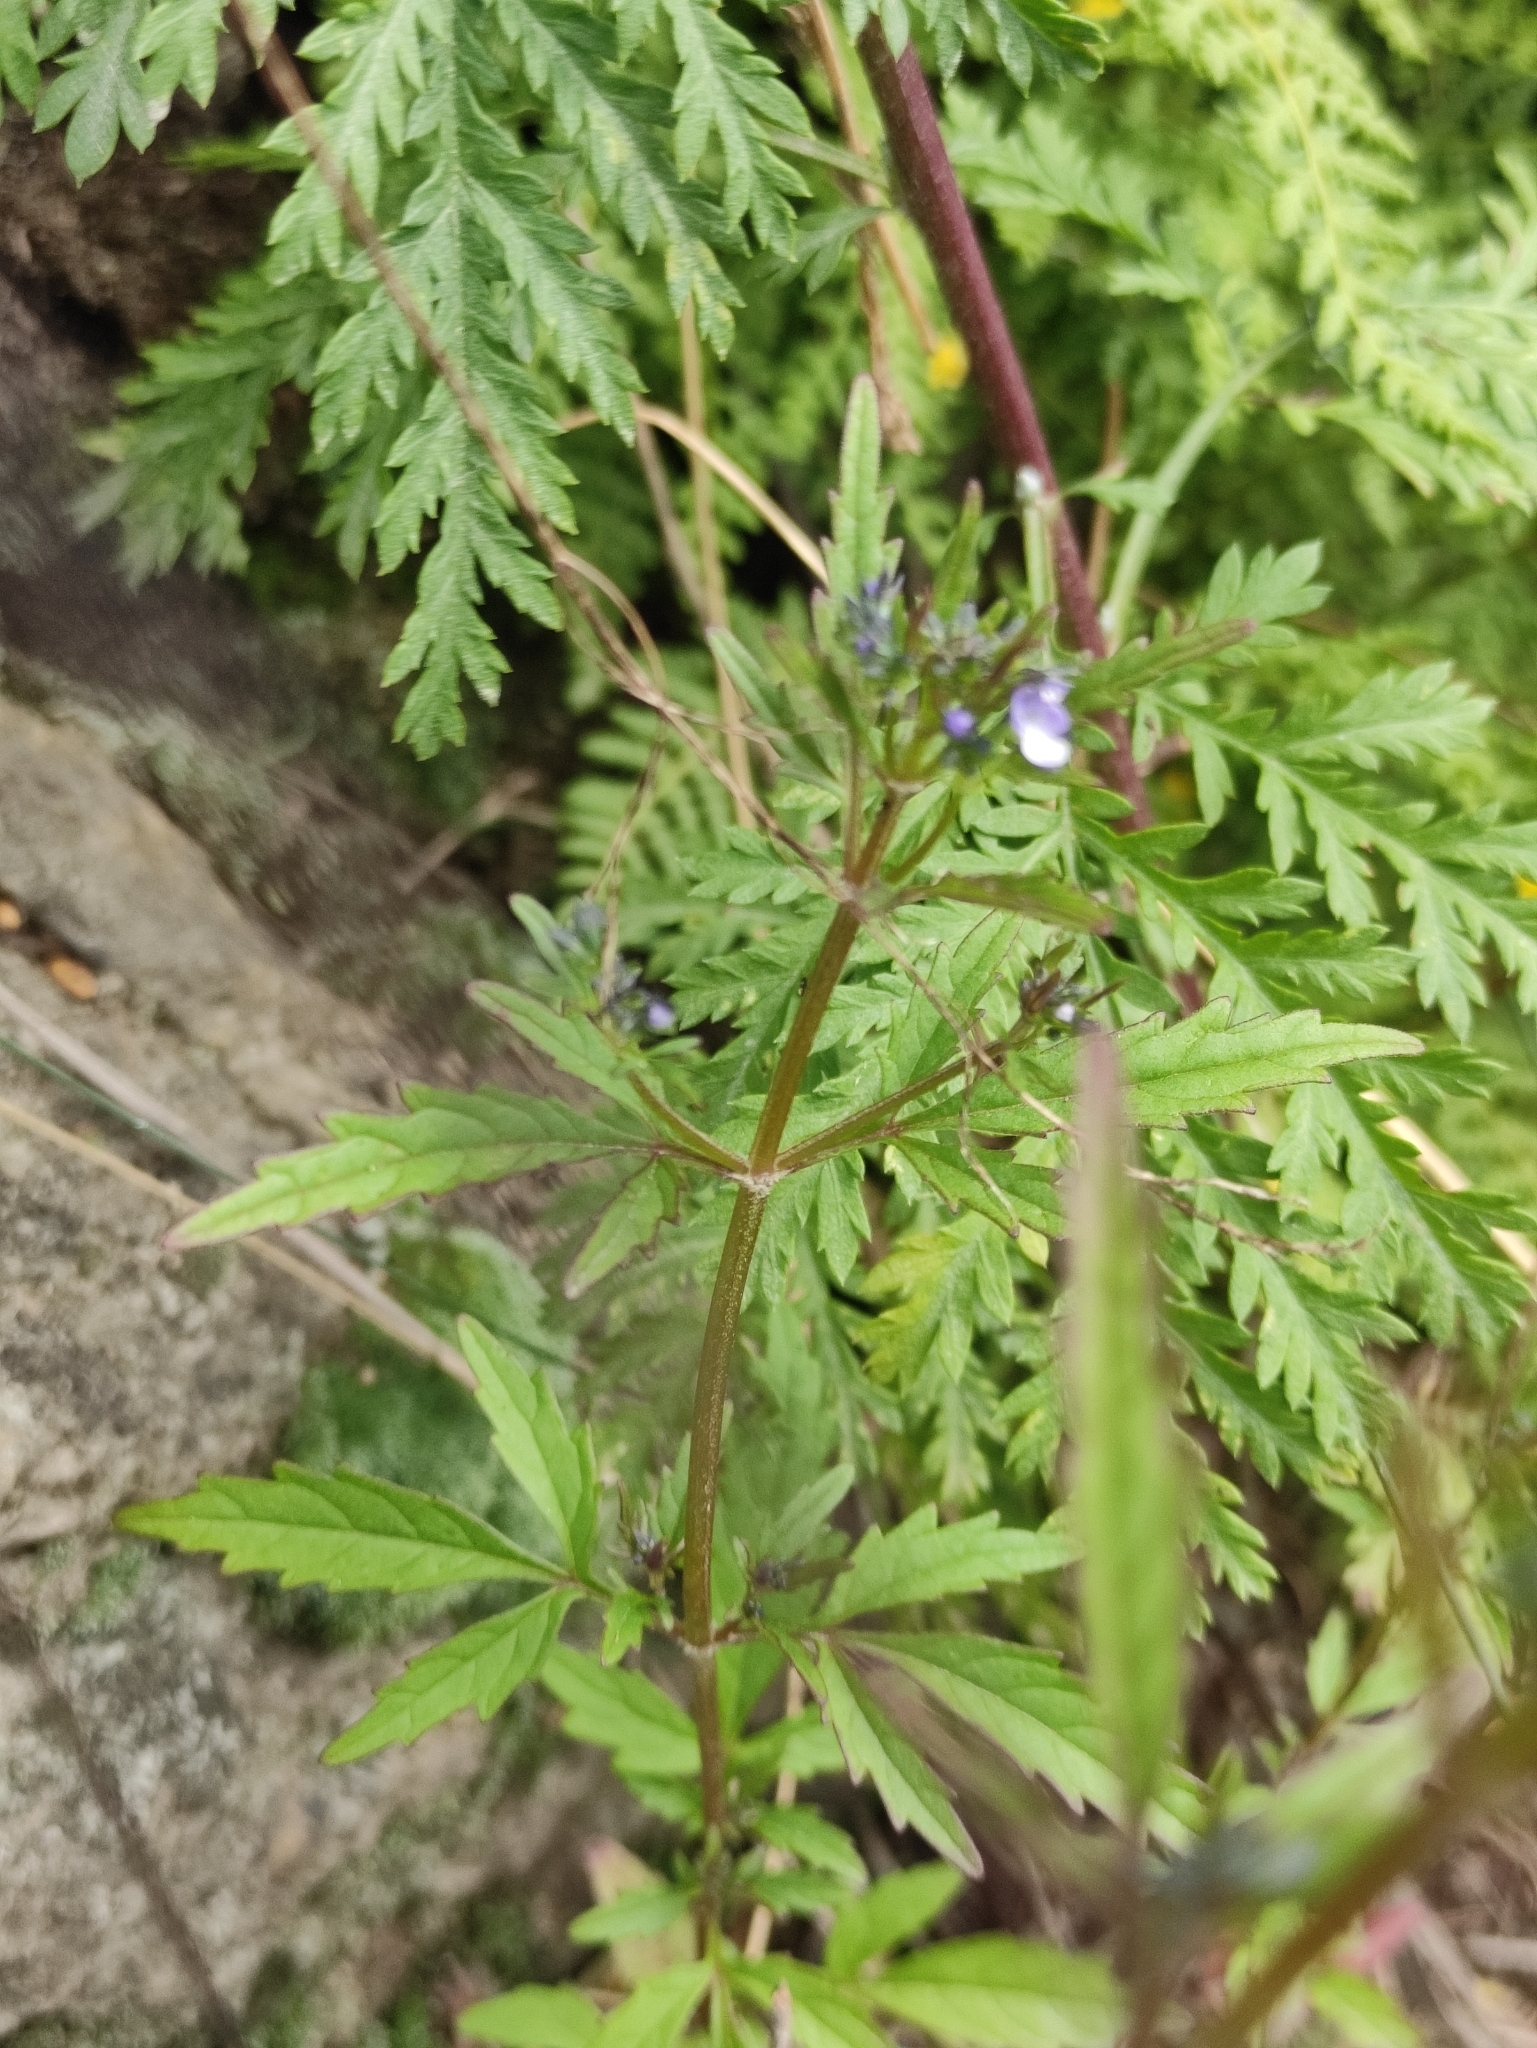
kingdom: Plantae
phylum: Tracheophyta
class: Magnoliopsida
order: Lamiales
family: Lamiaceae
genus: Amethystea
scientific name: Amethystea caerulea
